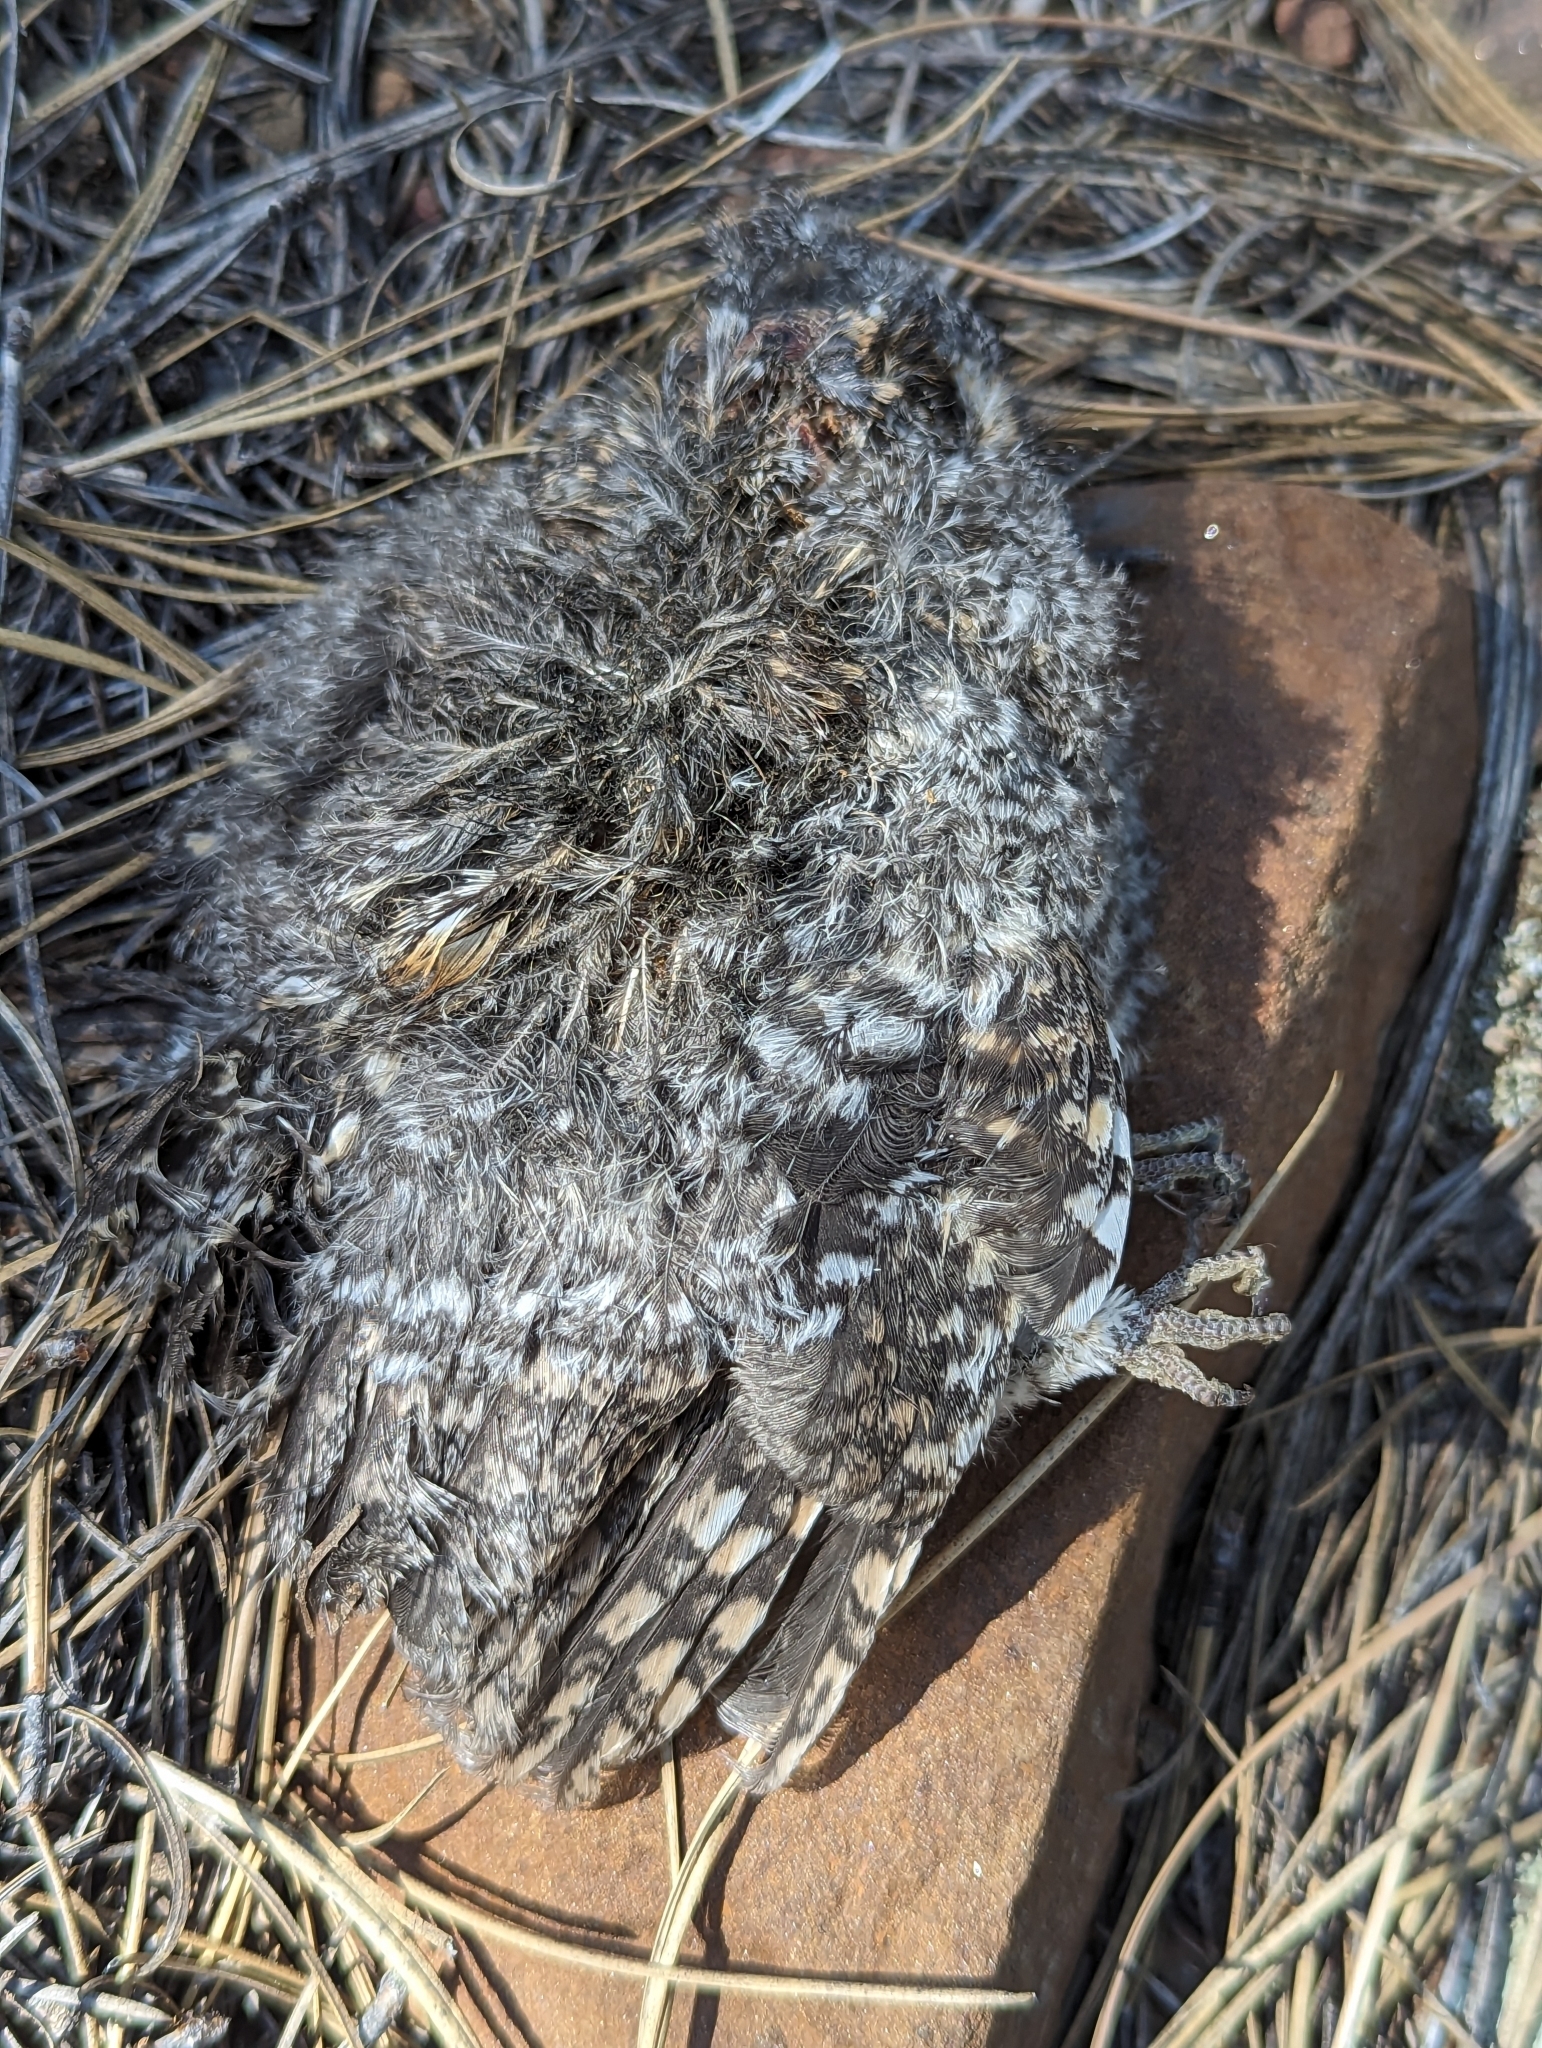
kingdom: Animalia
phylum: Chordata
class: Aves
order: Strigiformes
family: Strigidae
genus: Psiloscops
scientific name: Psiloscops flammeolus
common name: Flammulated owl
